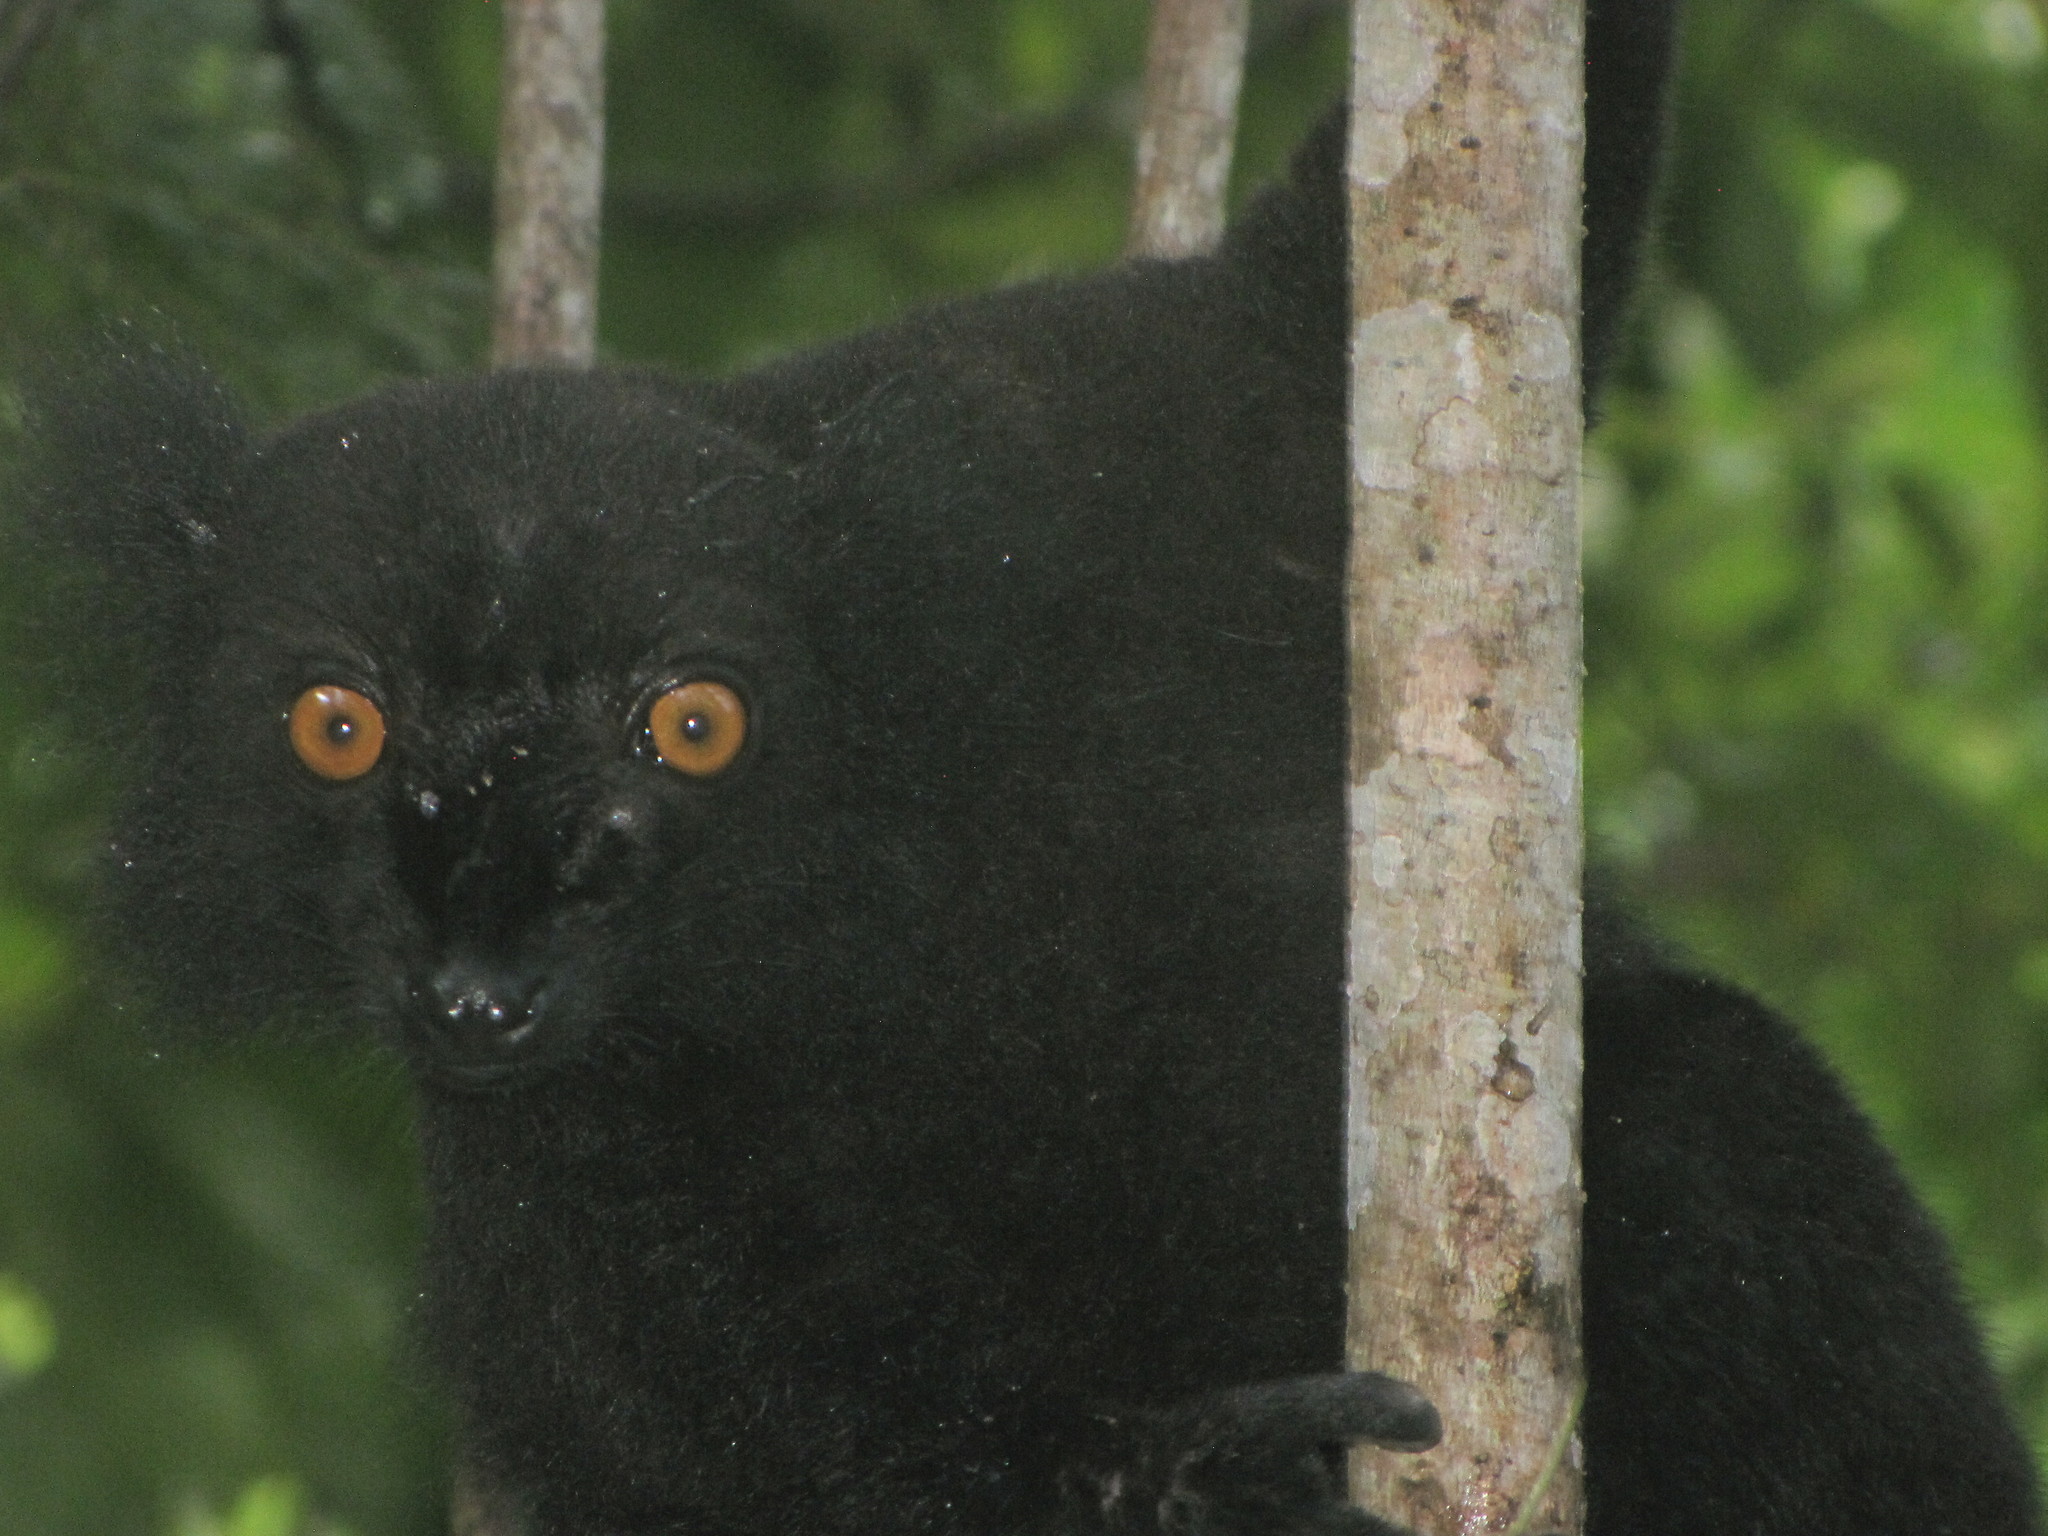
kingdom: Animalia
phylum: Chordata
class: Mammalia
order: Primates
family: Lemuridae
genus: Eulemur
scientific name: Eulemur macaco
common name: Black lemur
